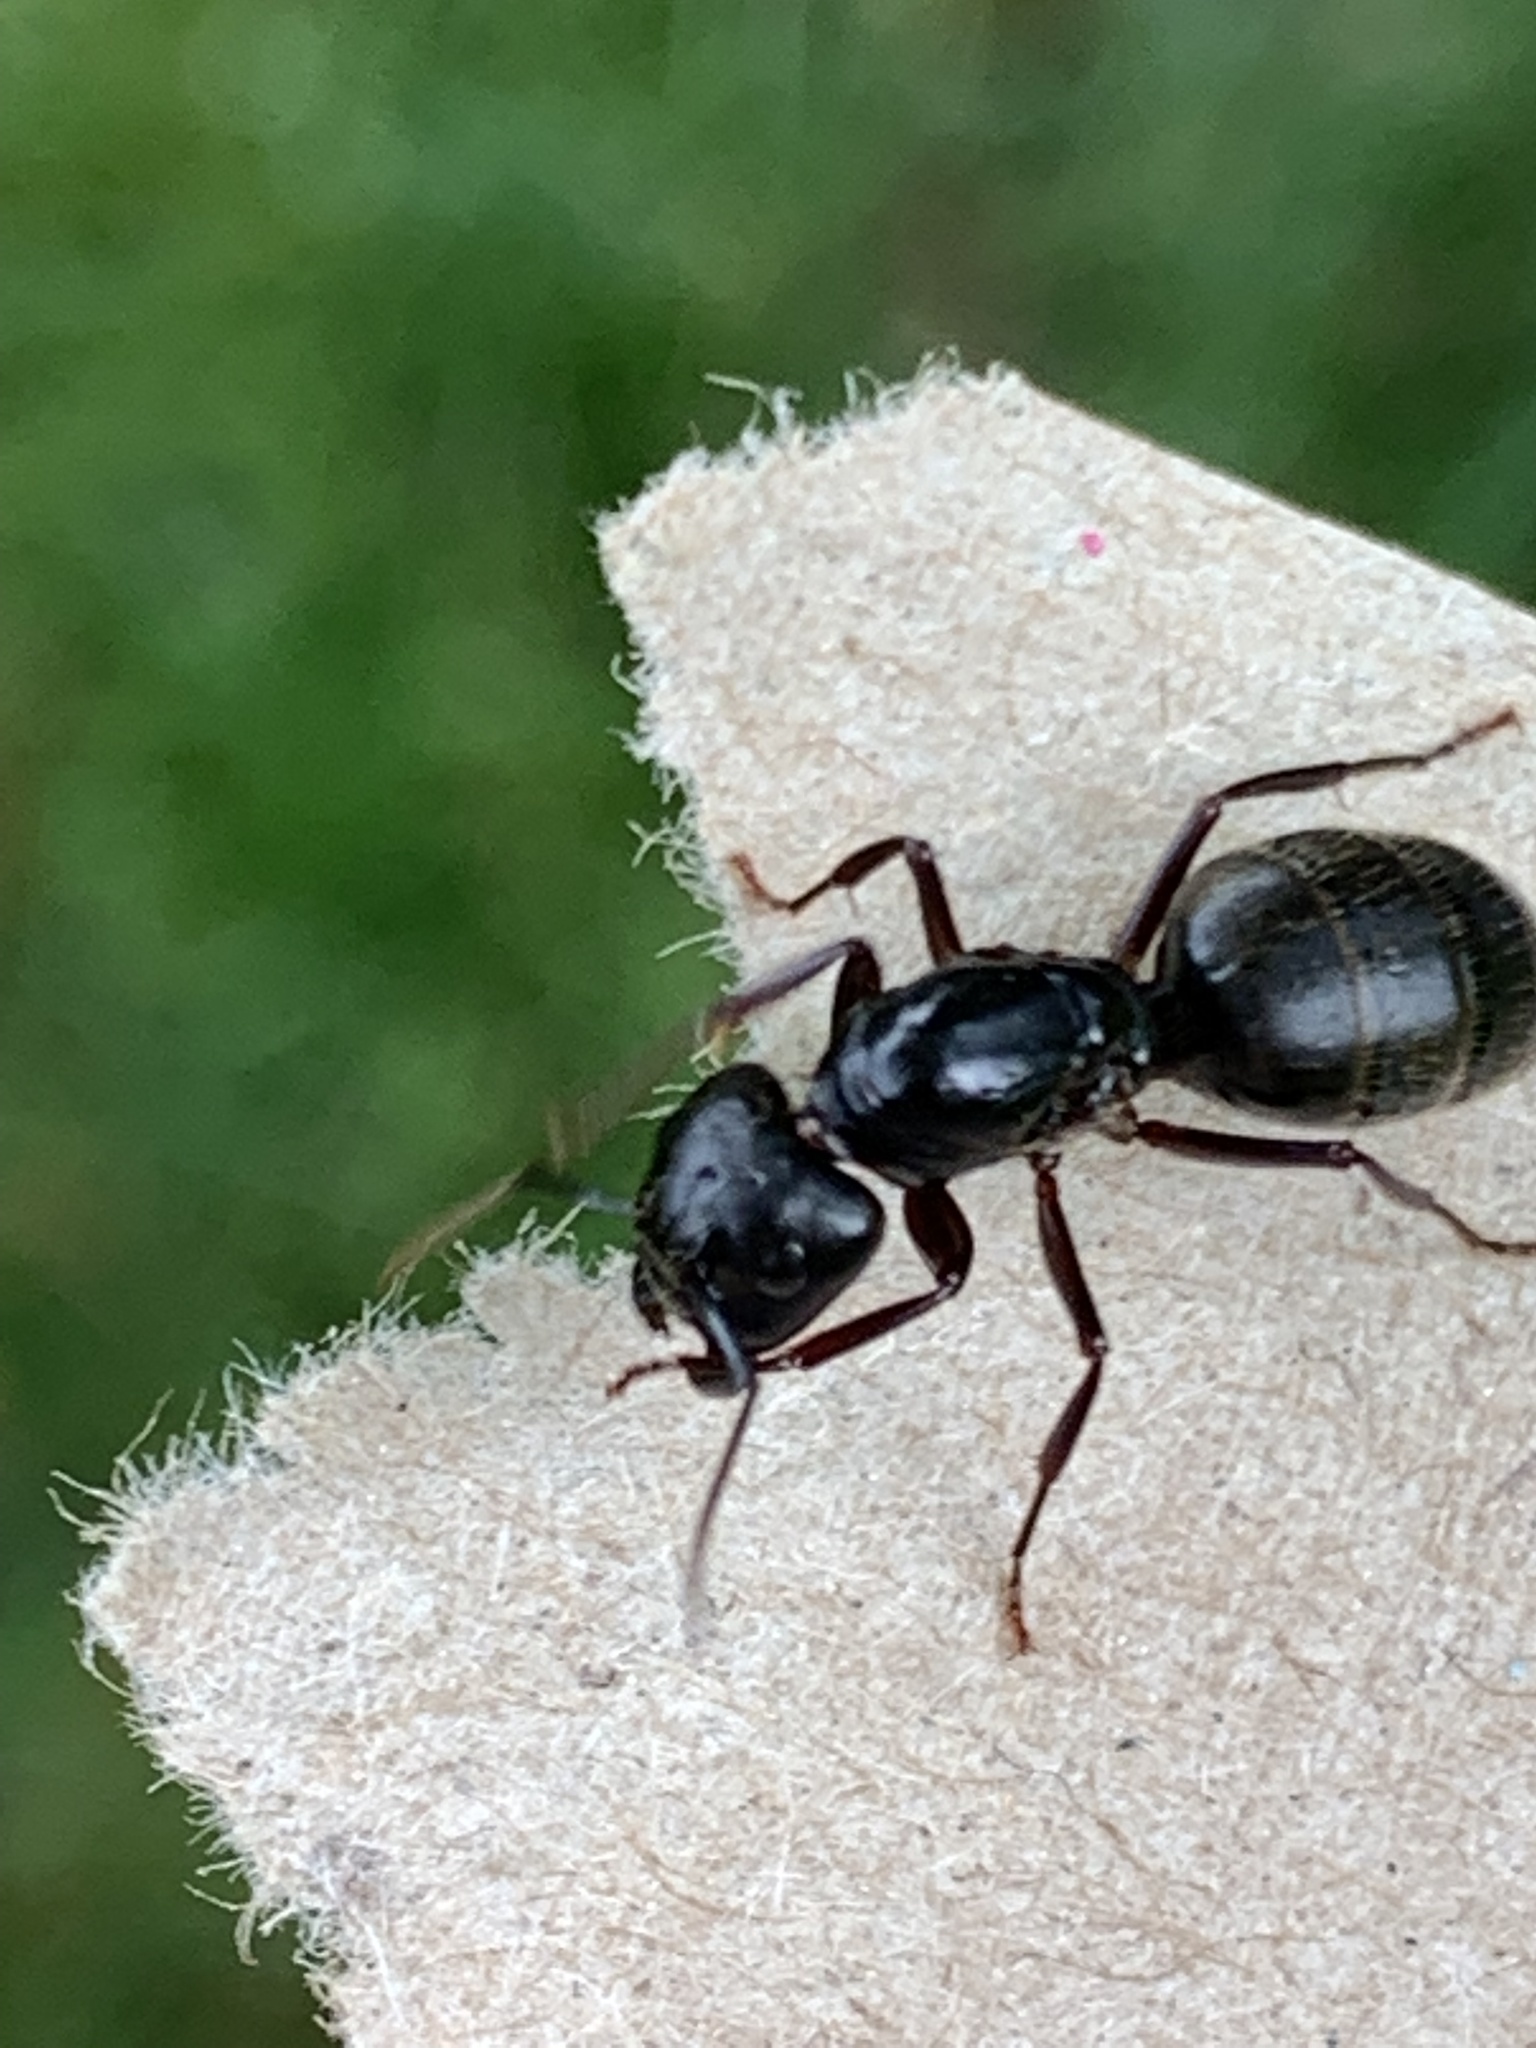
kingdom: Animalia
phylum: Arthropoda
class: Insecta
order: Hymenoptera
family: Formicidae
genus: Camponotus
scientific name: Camponotus pennsylvanicus
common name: Black carpenter ant
